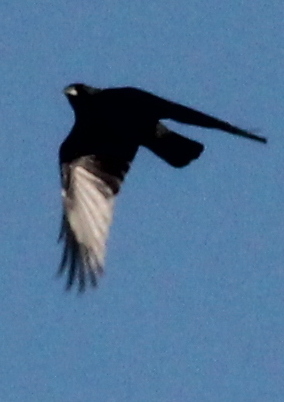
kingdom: Animalia
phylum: Chordata
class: Aves
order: Passeriformes
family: Corvidae
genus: Corvus
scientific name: Corvus brachyrhynchos
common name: American crow
